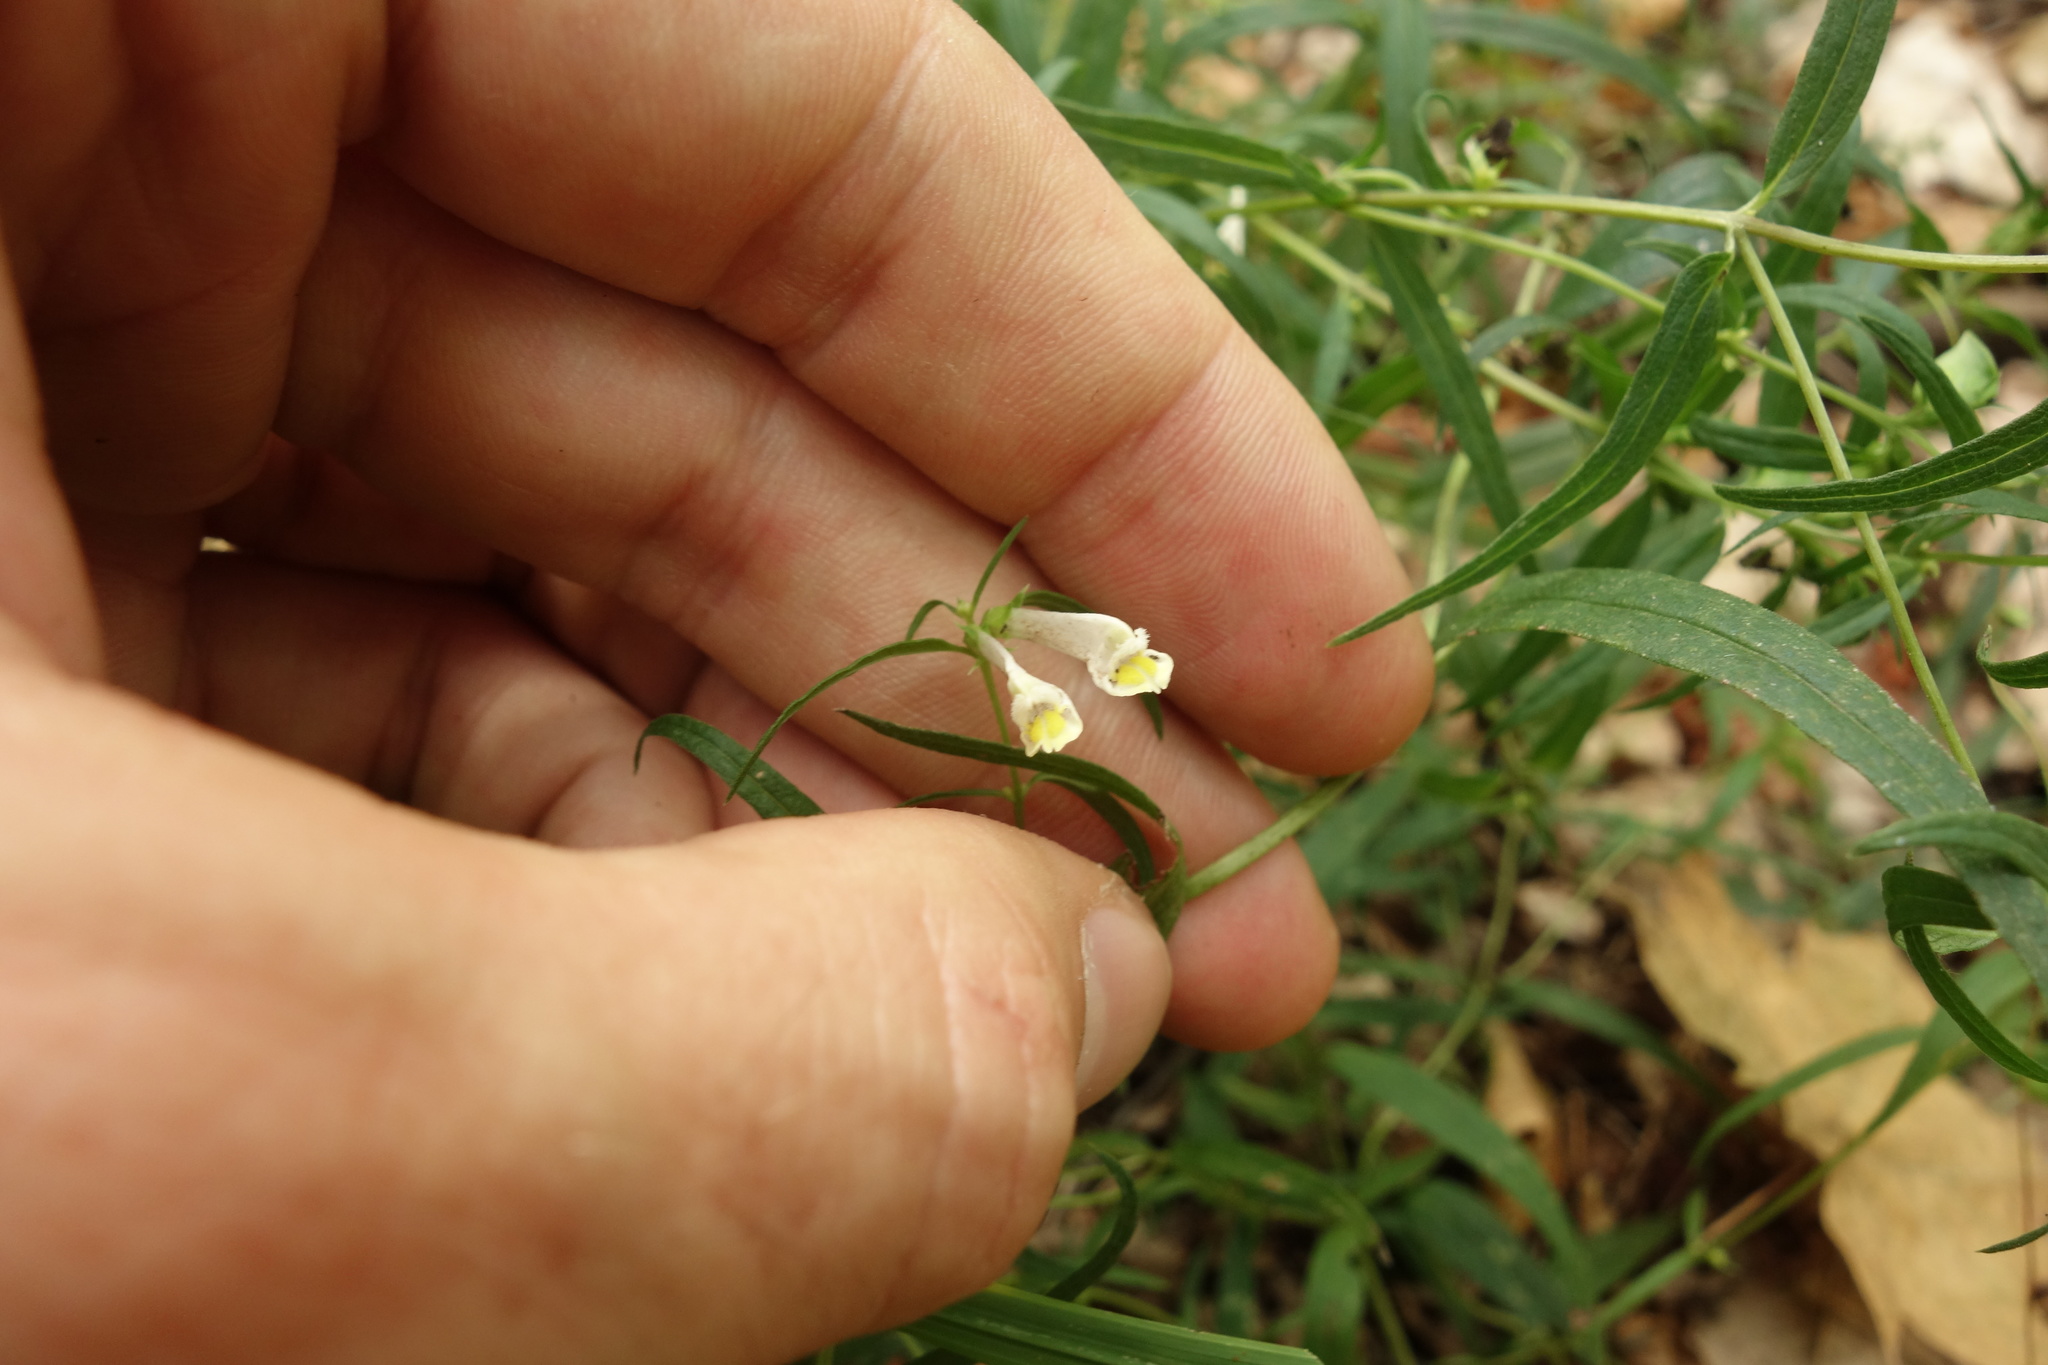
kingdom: Plantae
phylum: Tracheophyta
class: Magnoliopsida
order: Lamiales
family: Orobanchaceae
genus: Melampyrum
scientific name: Melampyrum pratense
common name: Common cow-wheat
